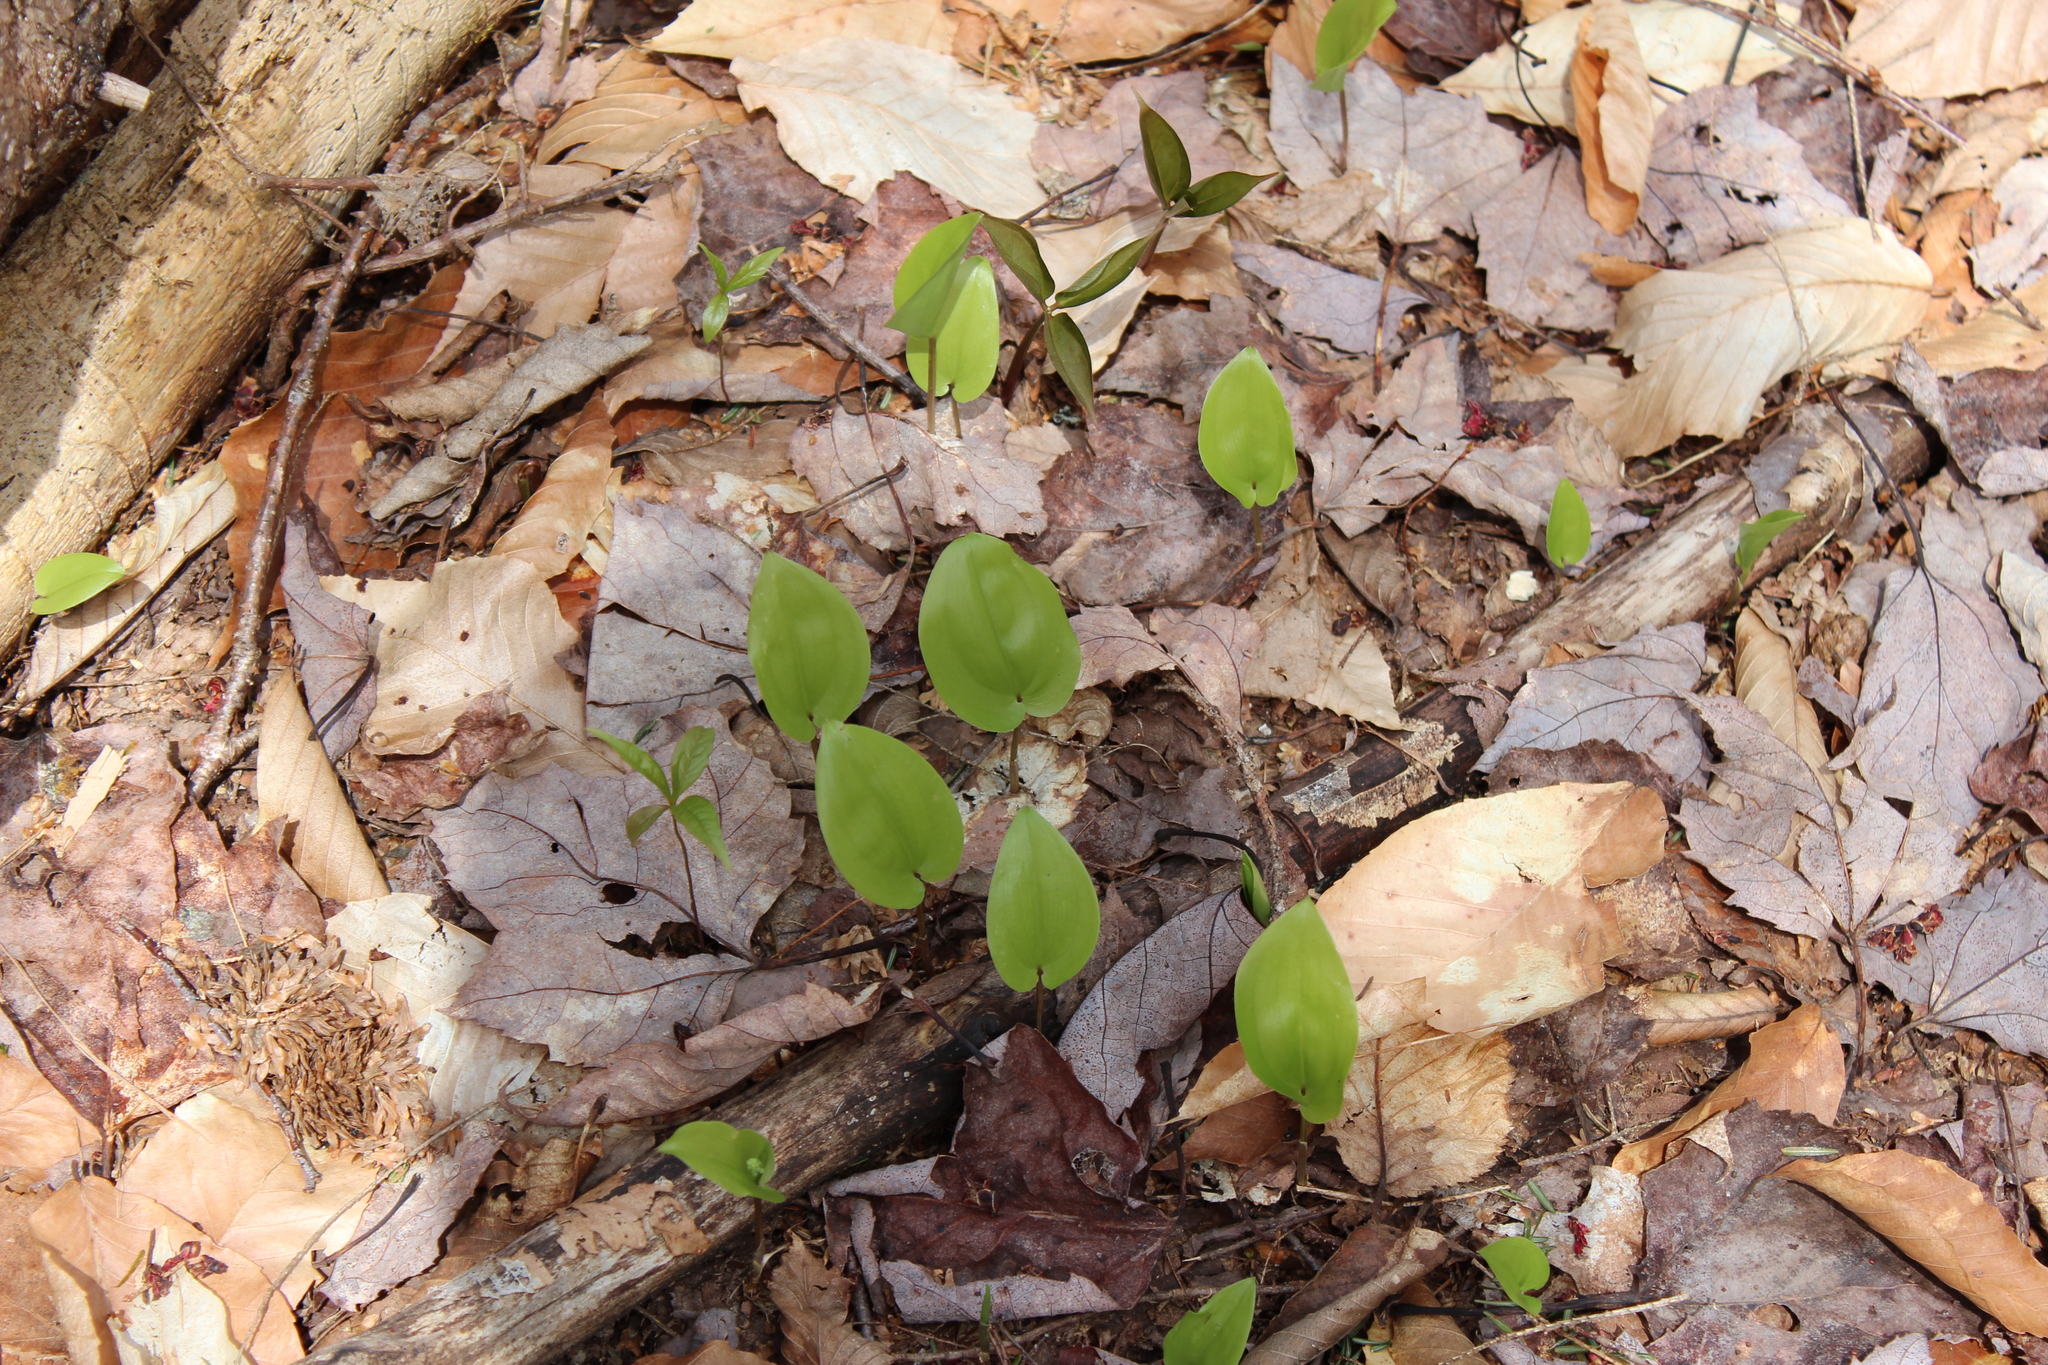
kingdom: Plantae
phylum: Tracheophyta
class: Liliopsida
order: Asparagales
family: Asparagaceae
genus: Maianthemum
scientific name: Maianthemum canadense
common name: False lily-of-the-valley
